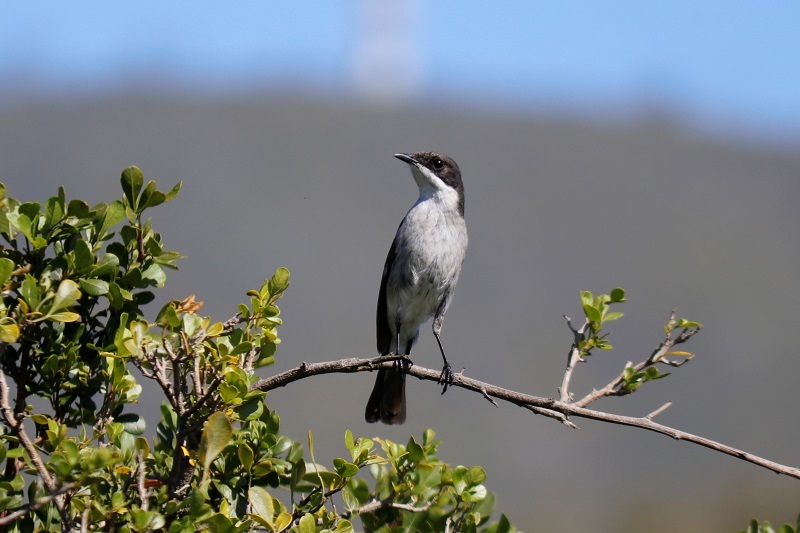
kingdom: Animalia
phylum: Chordata
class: Aves
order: Passeriformes
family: Muscicapidae
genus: Sigelus
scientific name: Sigelus silens
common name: Fiscal flycatcher
